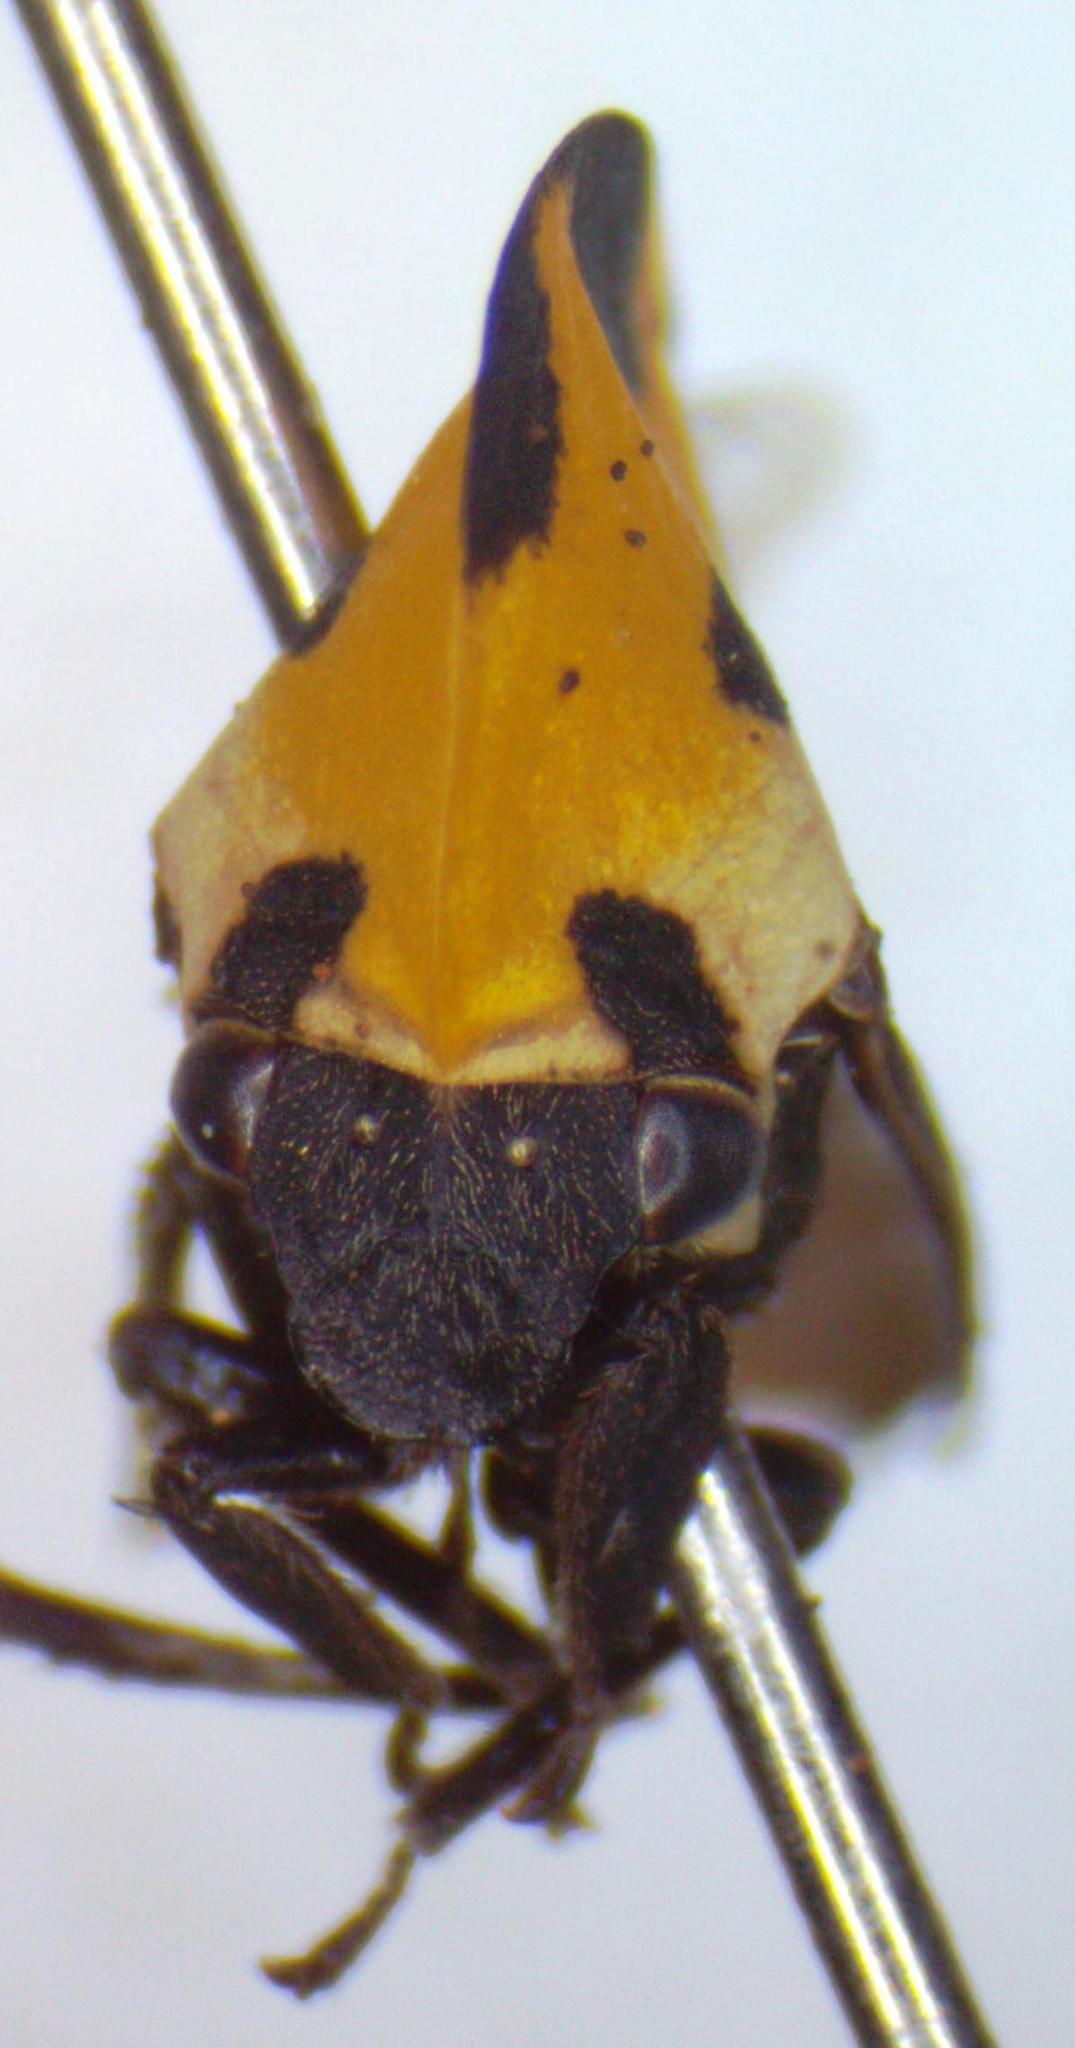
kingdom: Animalia
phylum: Arthropoda
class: Insecta
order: Hemiptera
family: Membracidae
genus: Membracis
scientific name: Membracis mexicana
